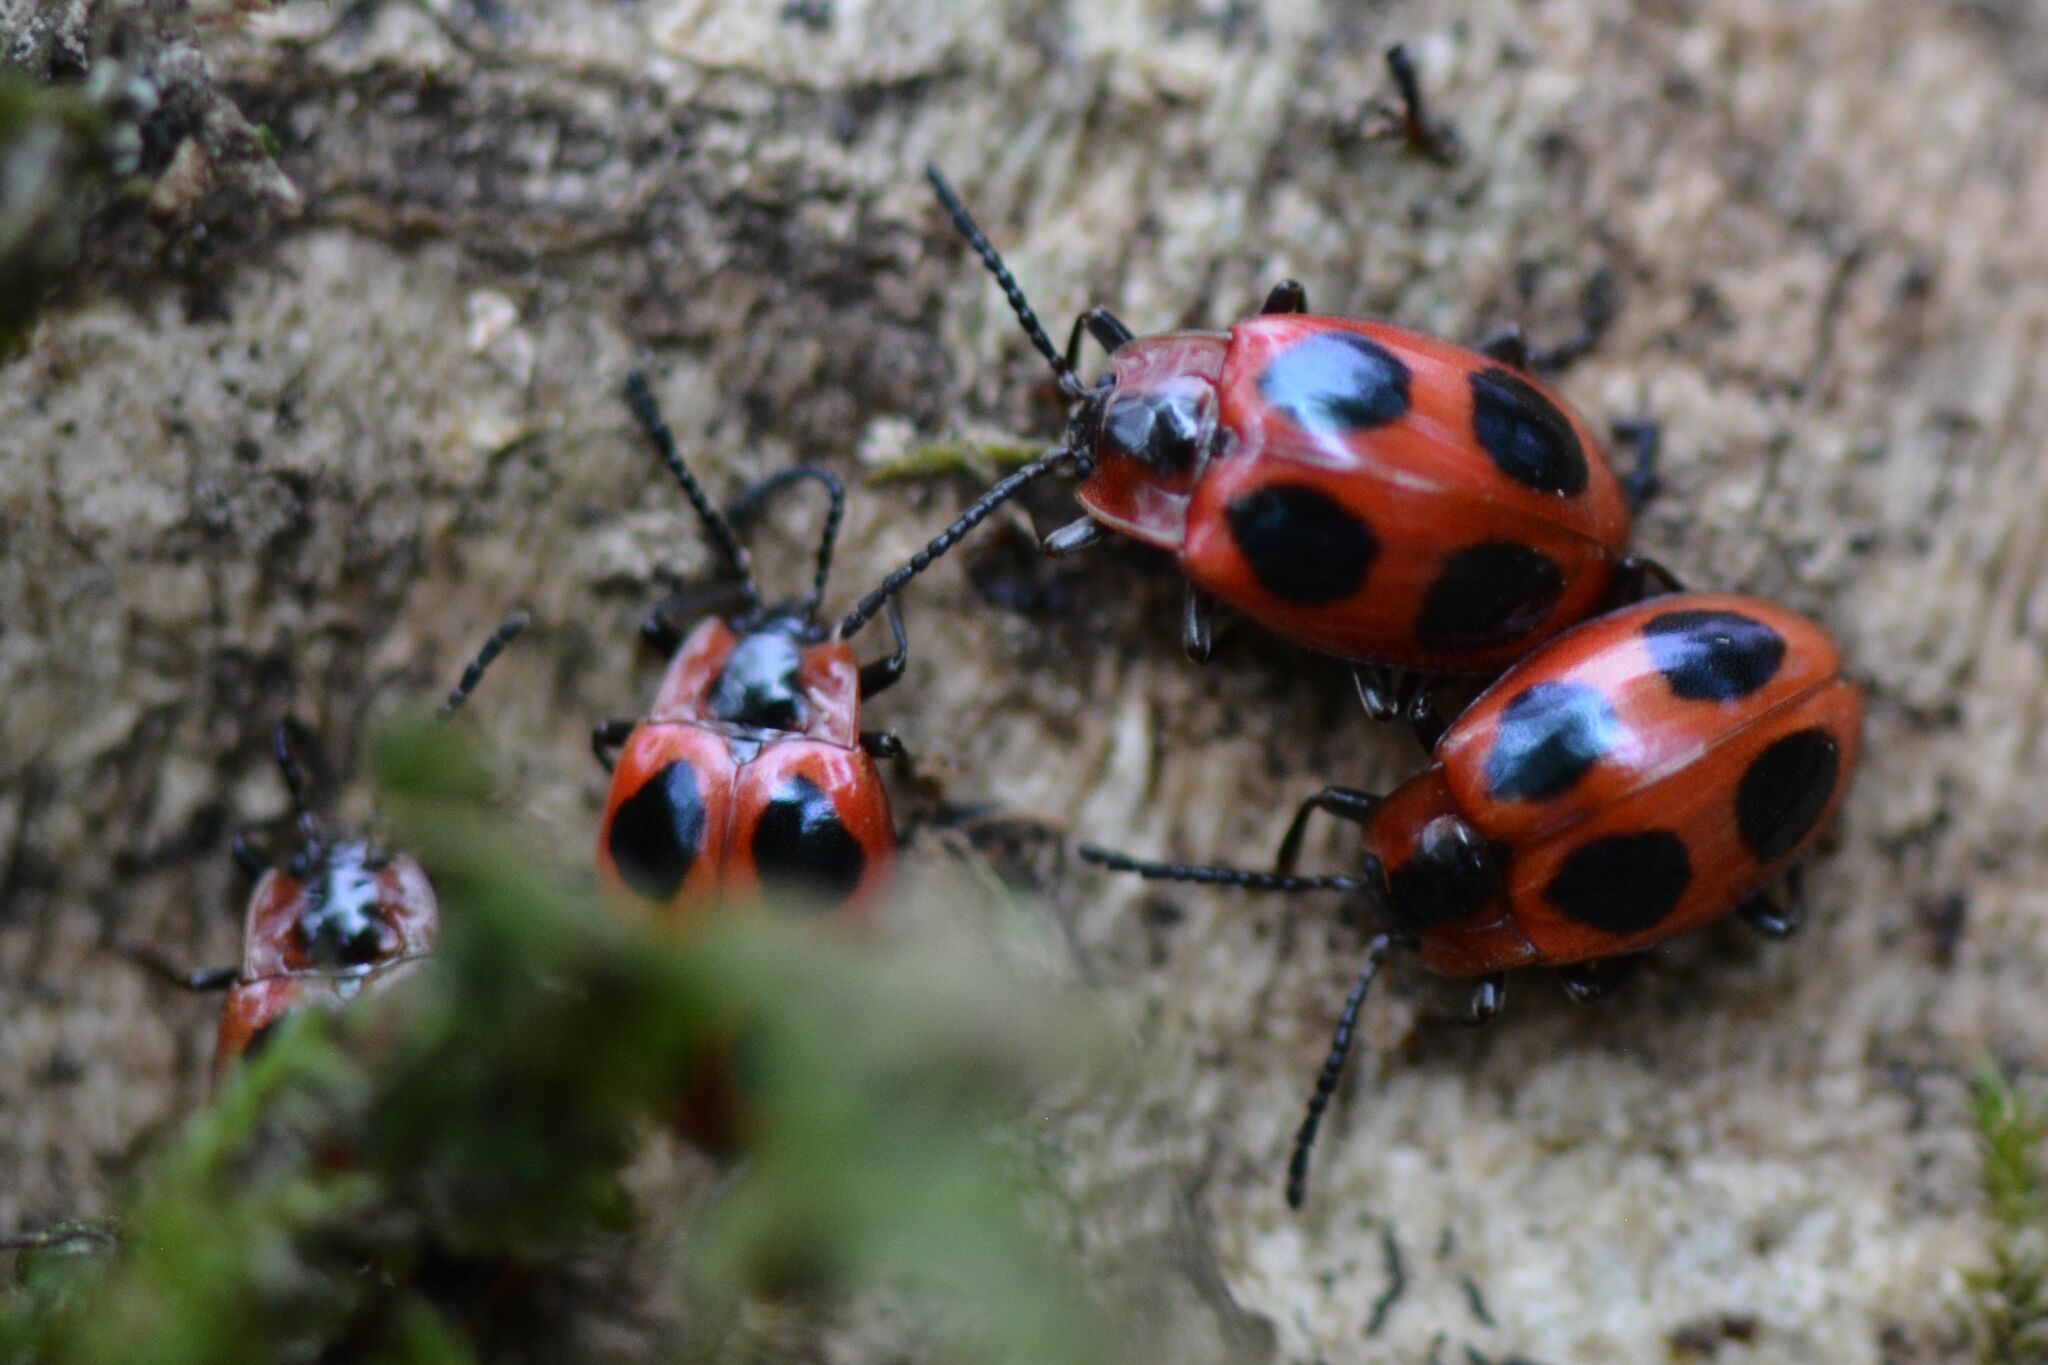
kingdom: Animalia
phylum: Arthropoda
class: Insecta
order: Coleoptera
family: Endomychidae
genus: Endomychus
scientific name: Endomychus coccineus
